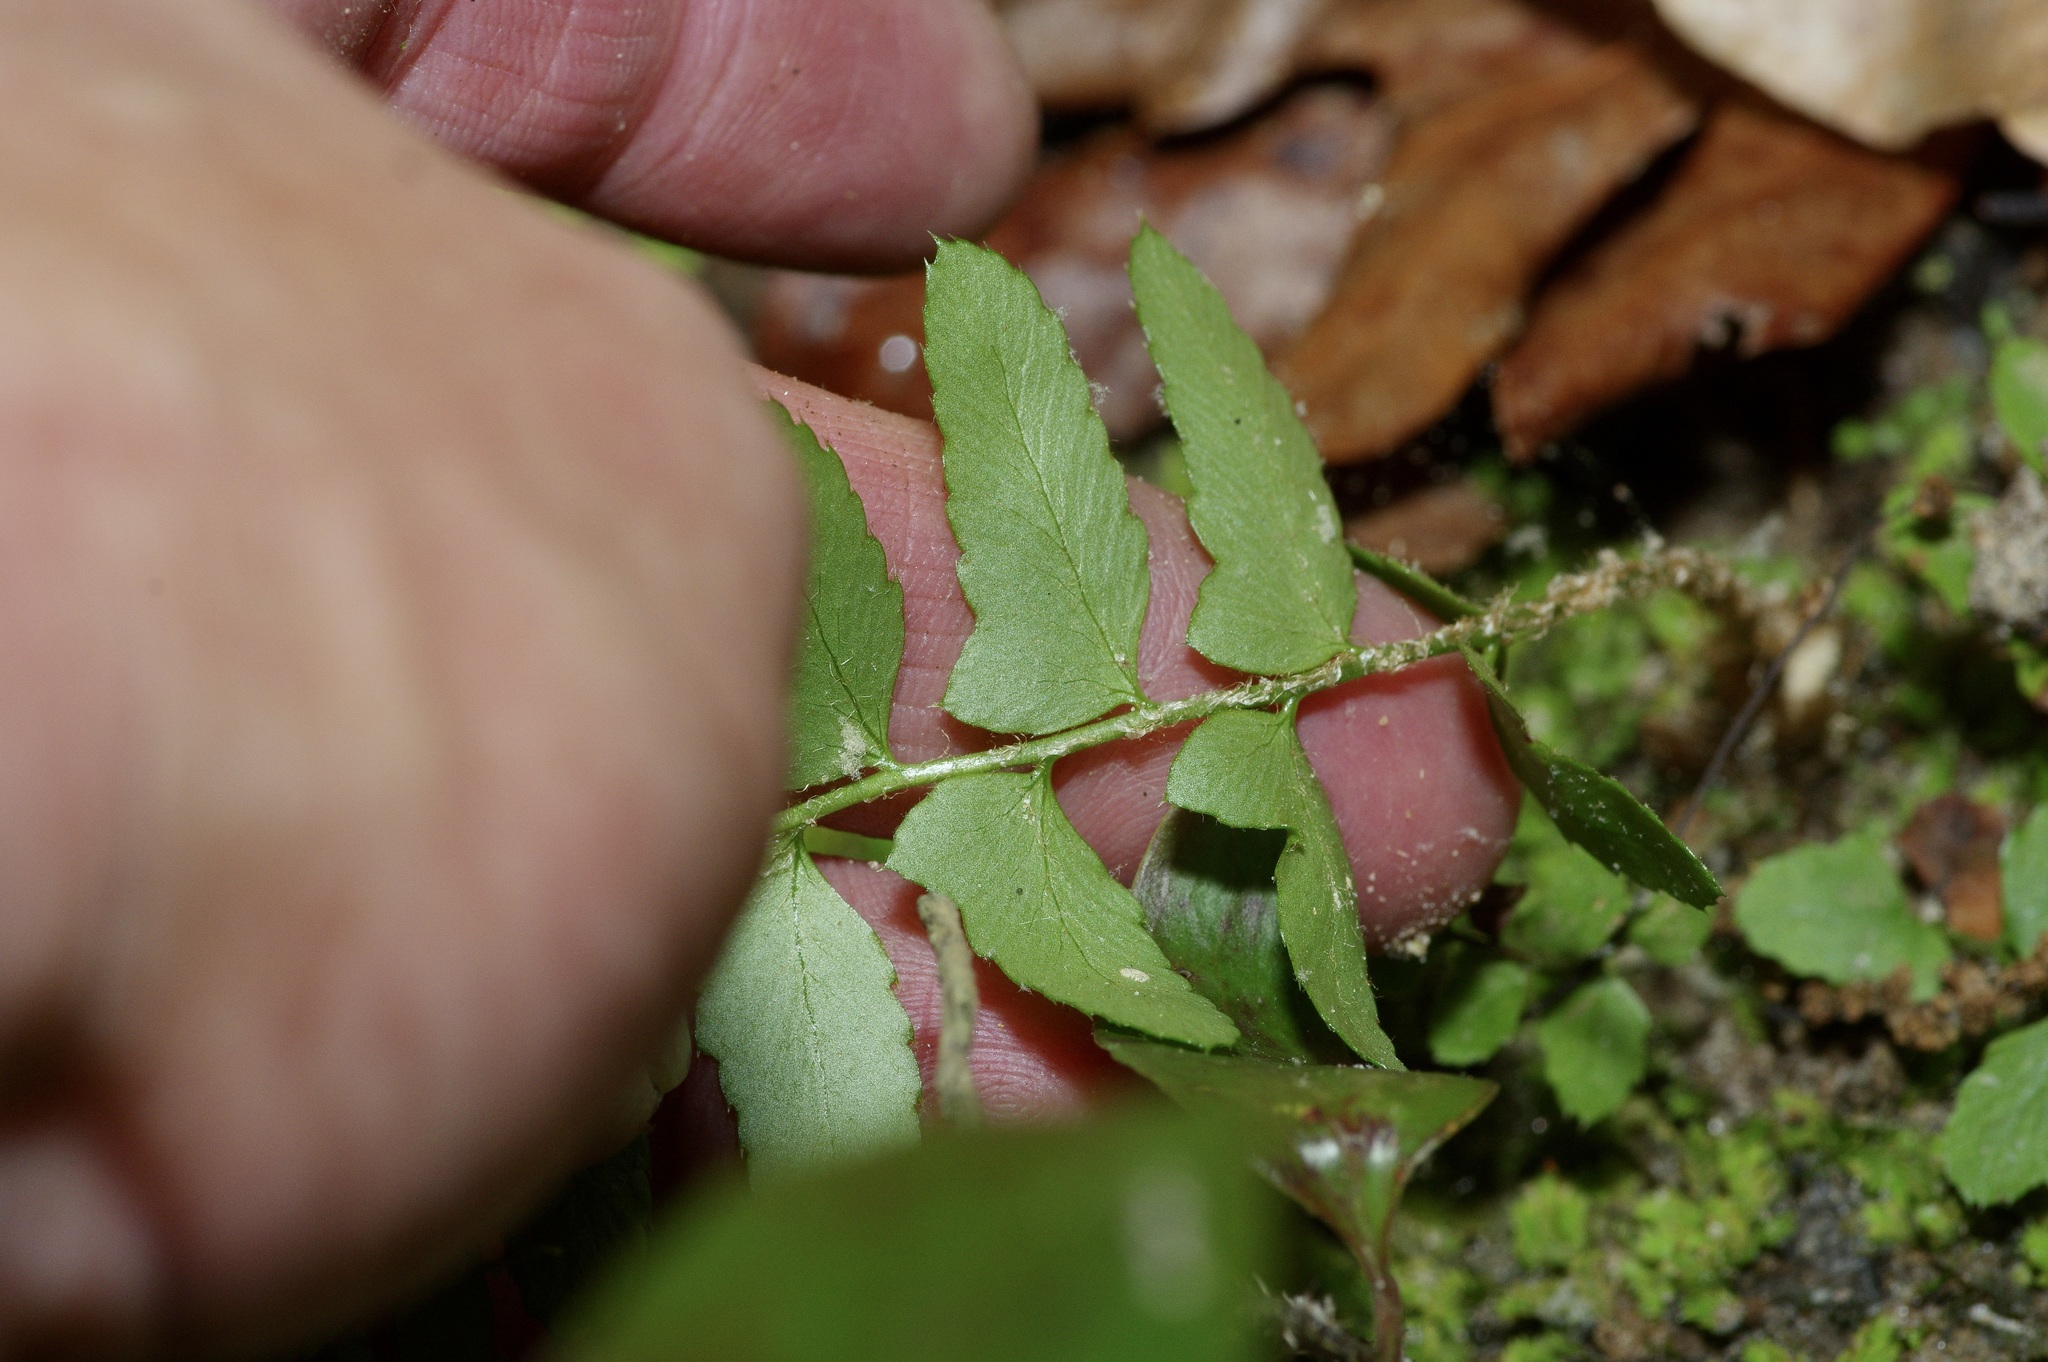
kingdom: Plantae
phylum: Tracheophyta
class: Polypodiopsida
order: Polypodiales
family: Dryopteridaceae
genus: Polystichum
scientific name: Polystichum acrostichoides
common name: Christmas fern
